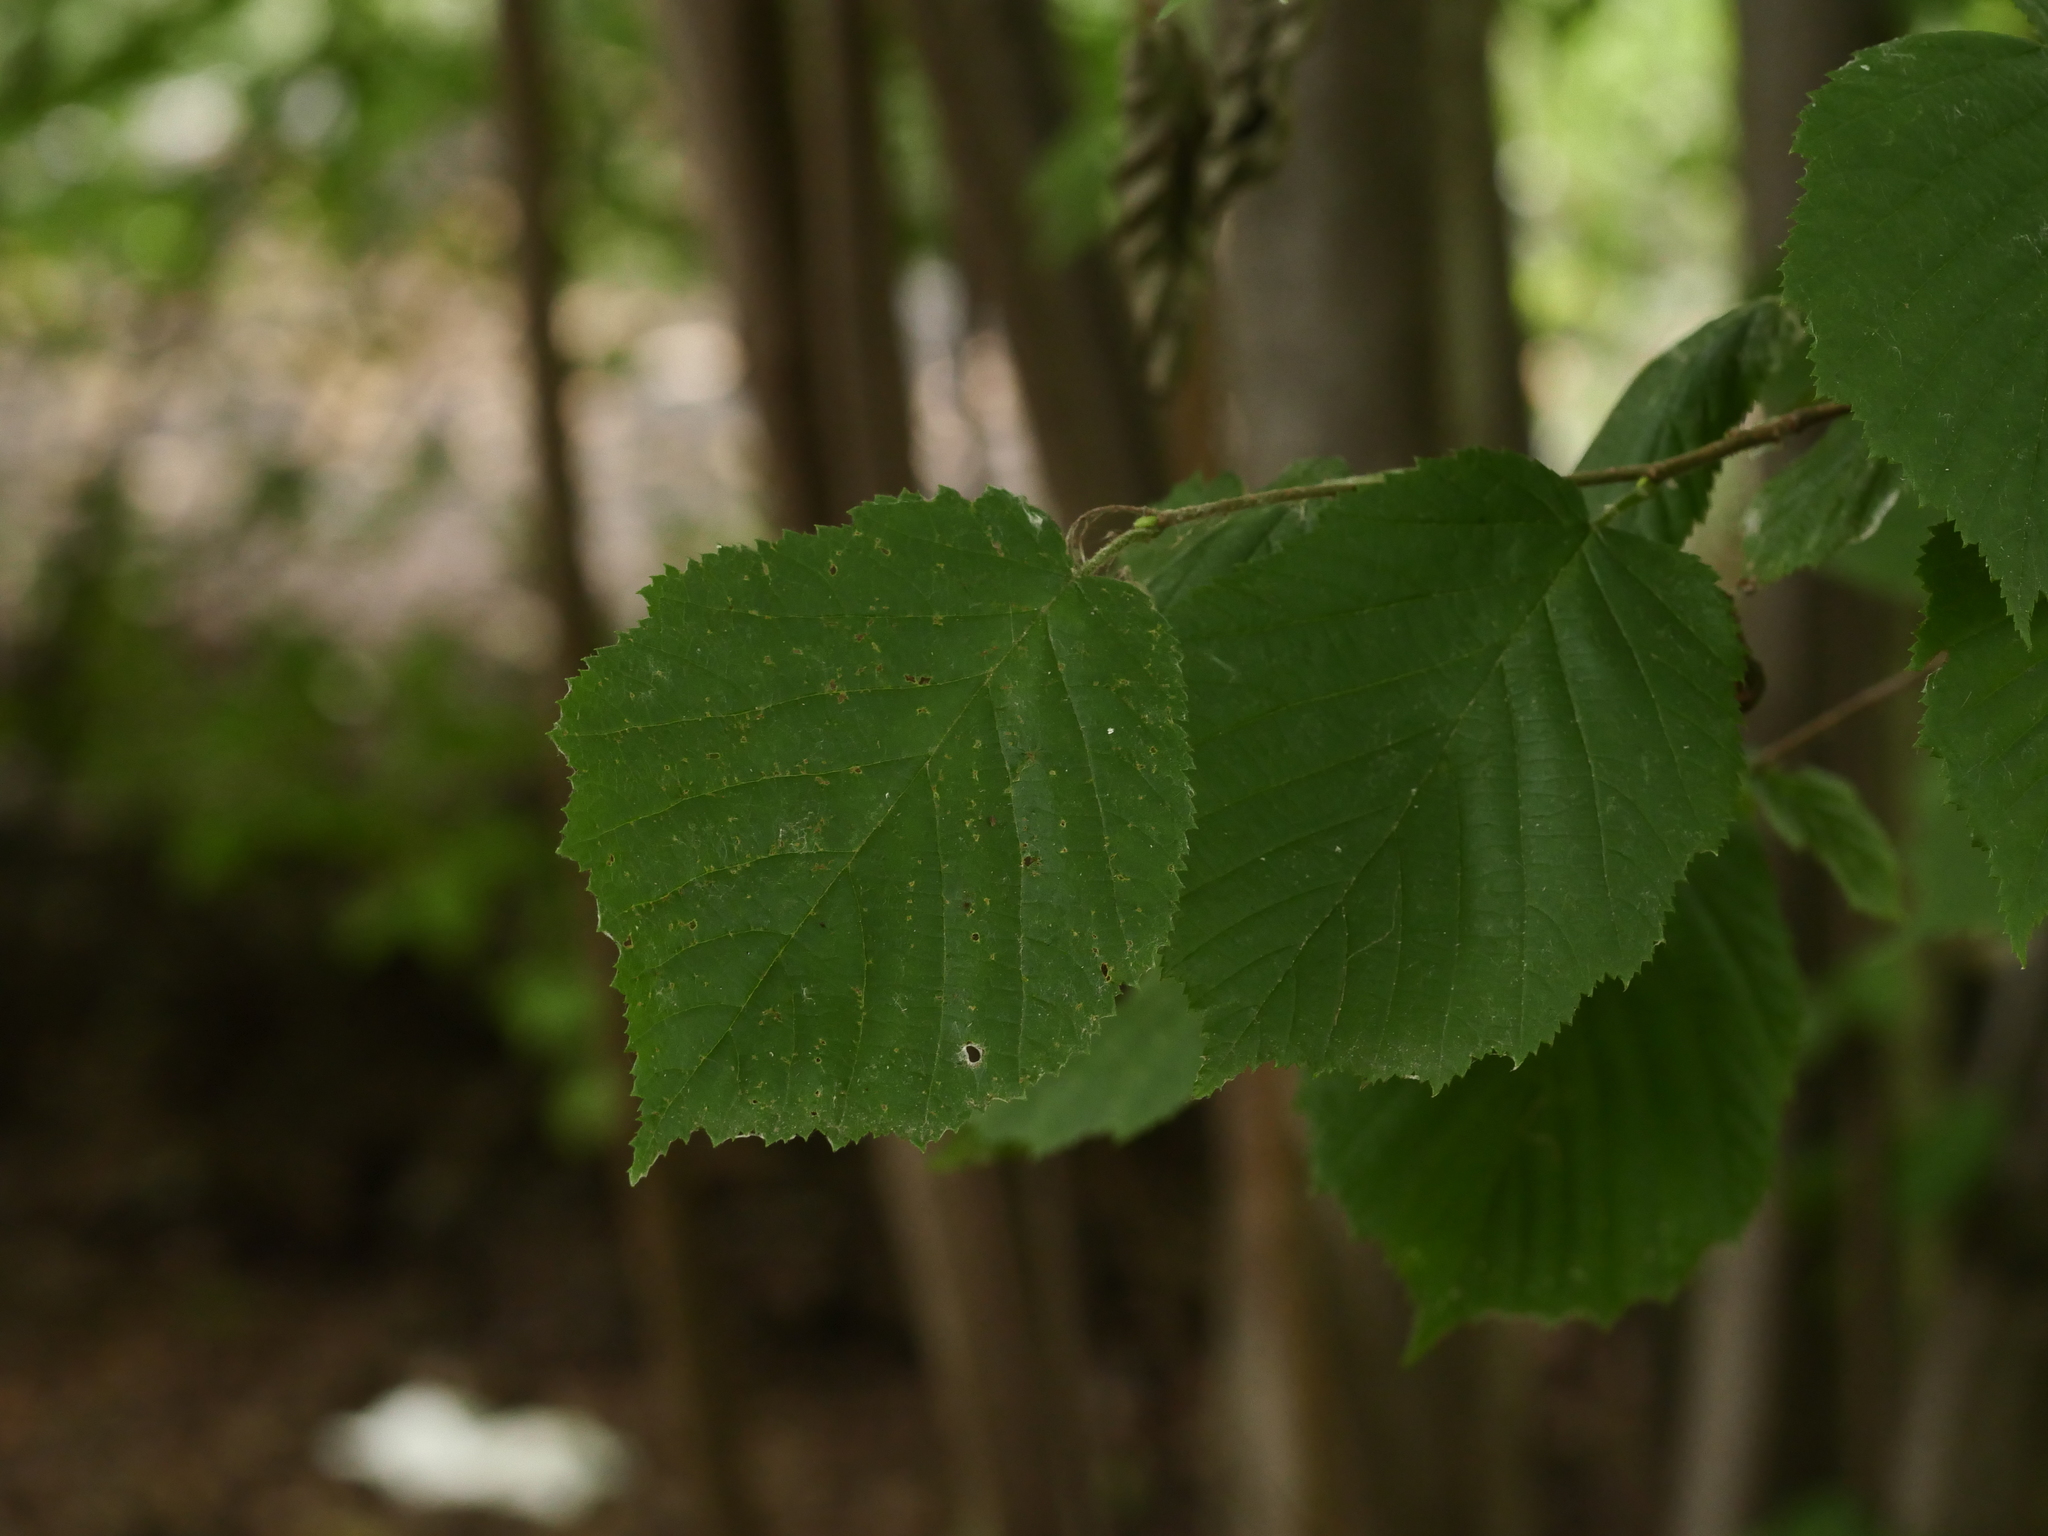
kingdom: Plantae
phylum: Tracheophyta
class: Magnoliopsida
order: Fagales
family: Betulaceae
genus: Corylus
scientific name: Corylus avellana
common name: European hazel
